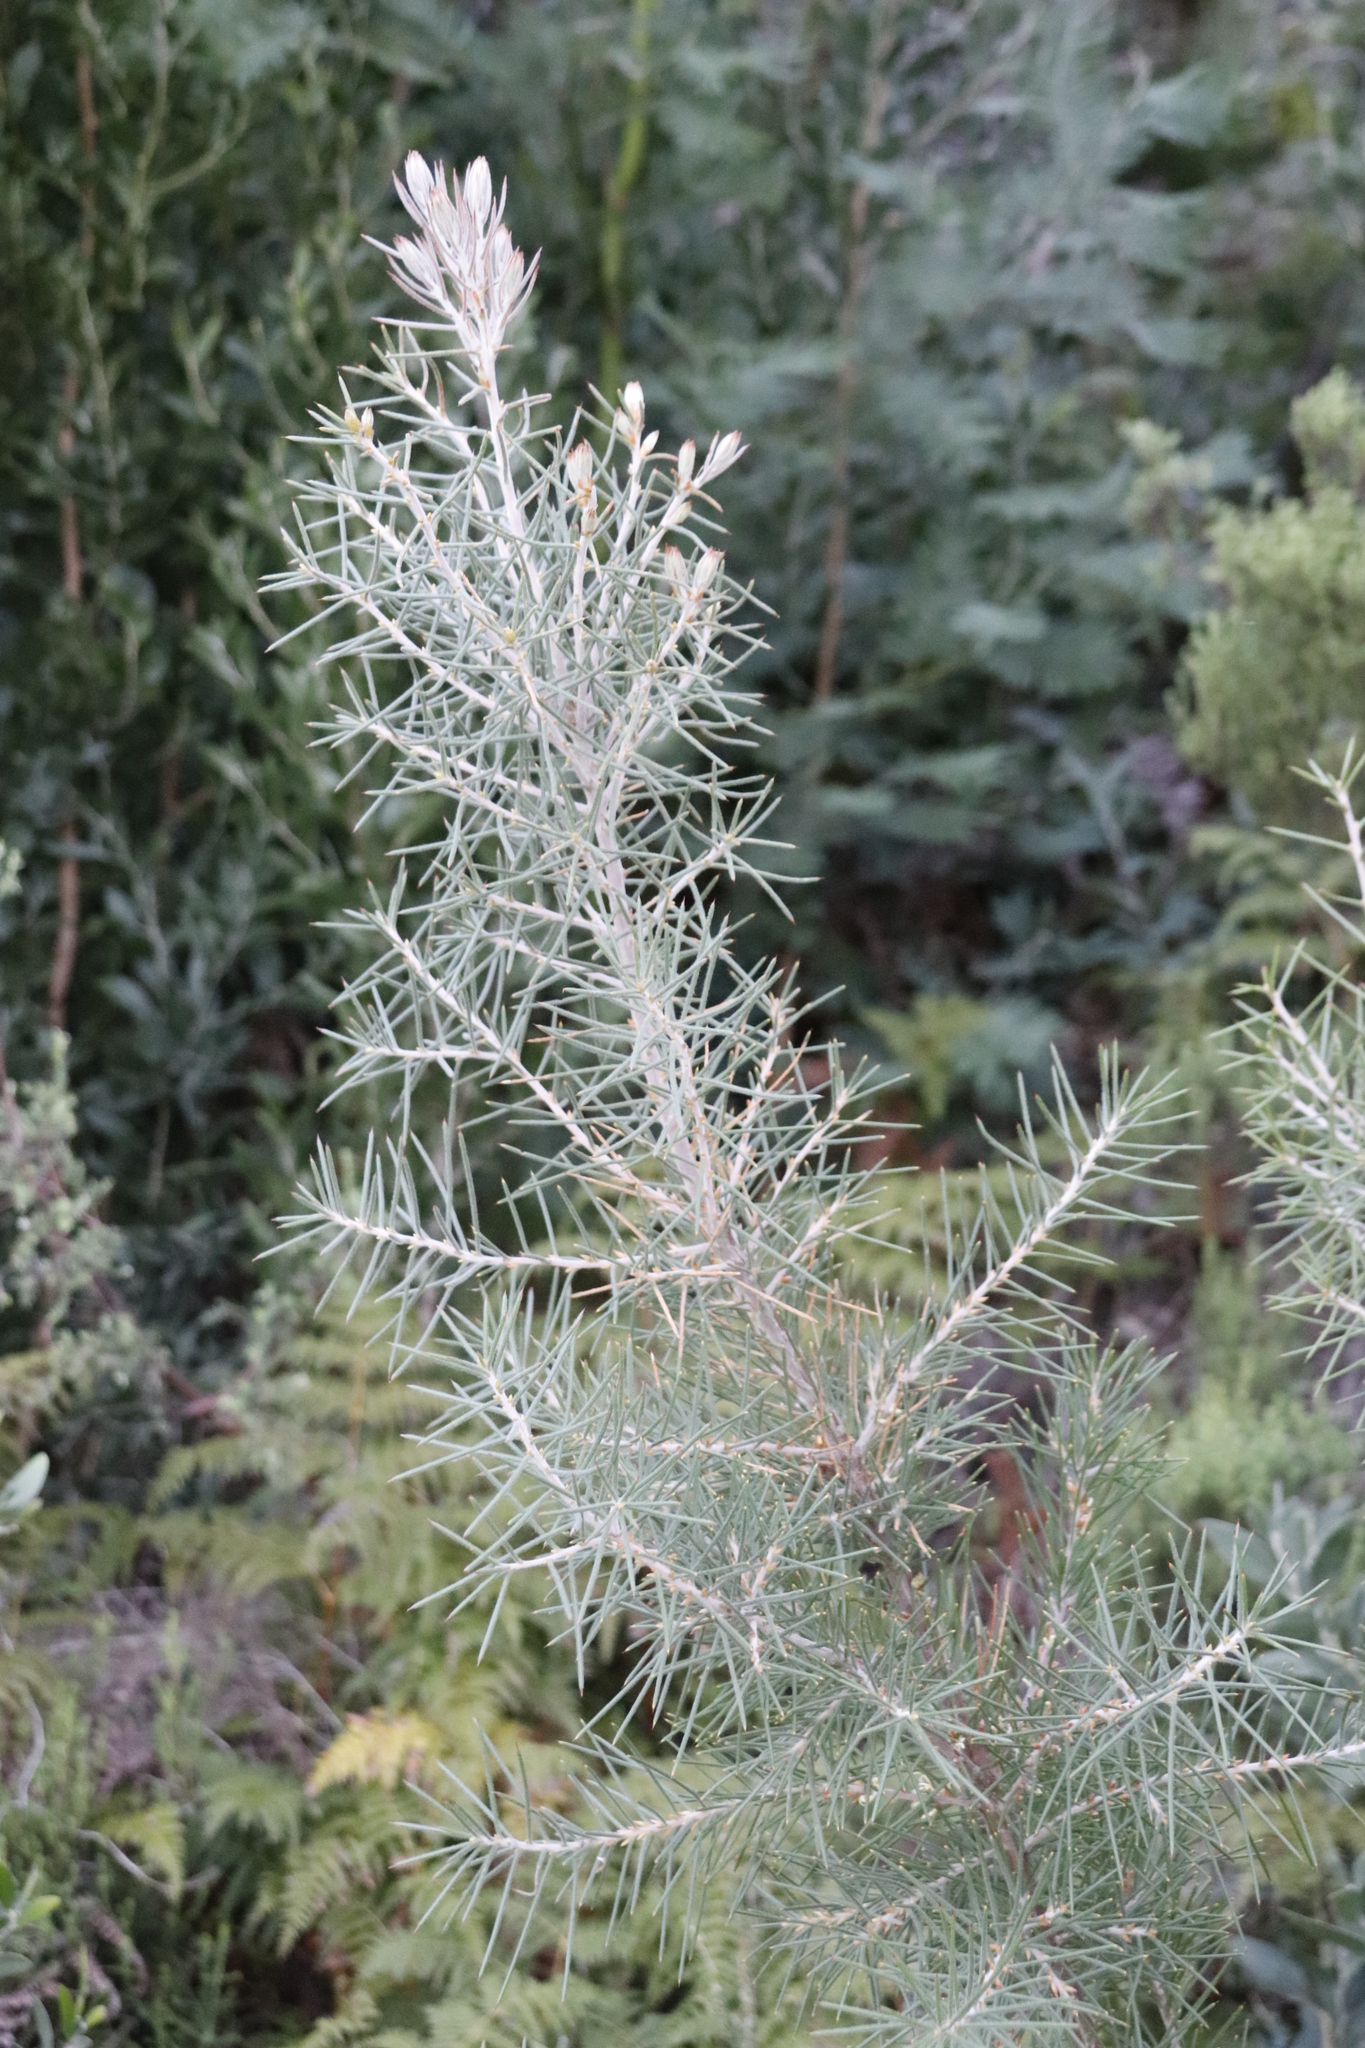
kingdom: Plantae
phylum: Tracheophyta
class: Magnoliopsida
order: Proteales
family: Proteaceae
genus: Hakea
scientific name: Hakea gibbosa
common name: Rock hakea
